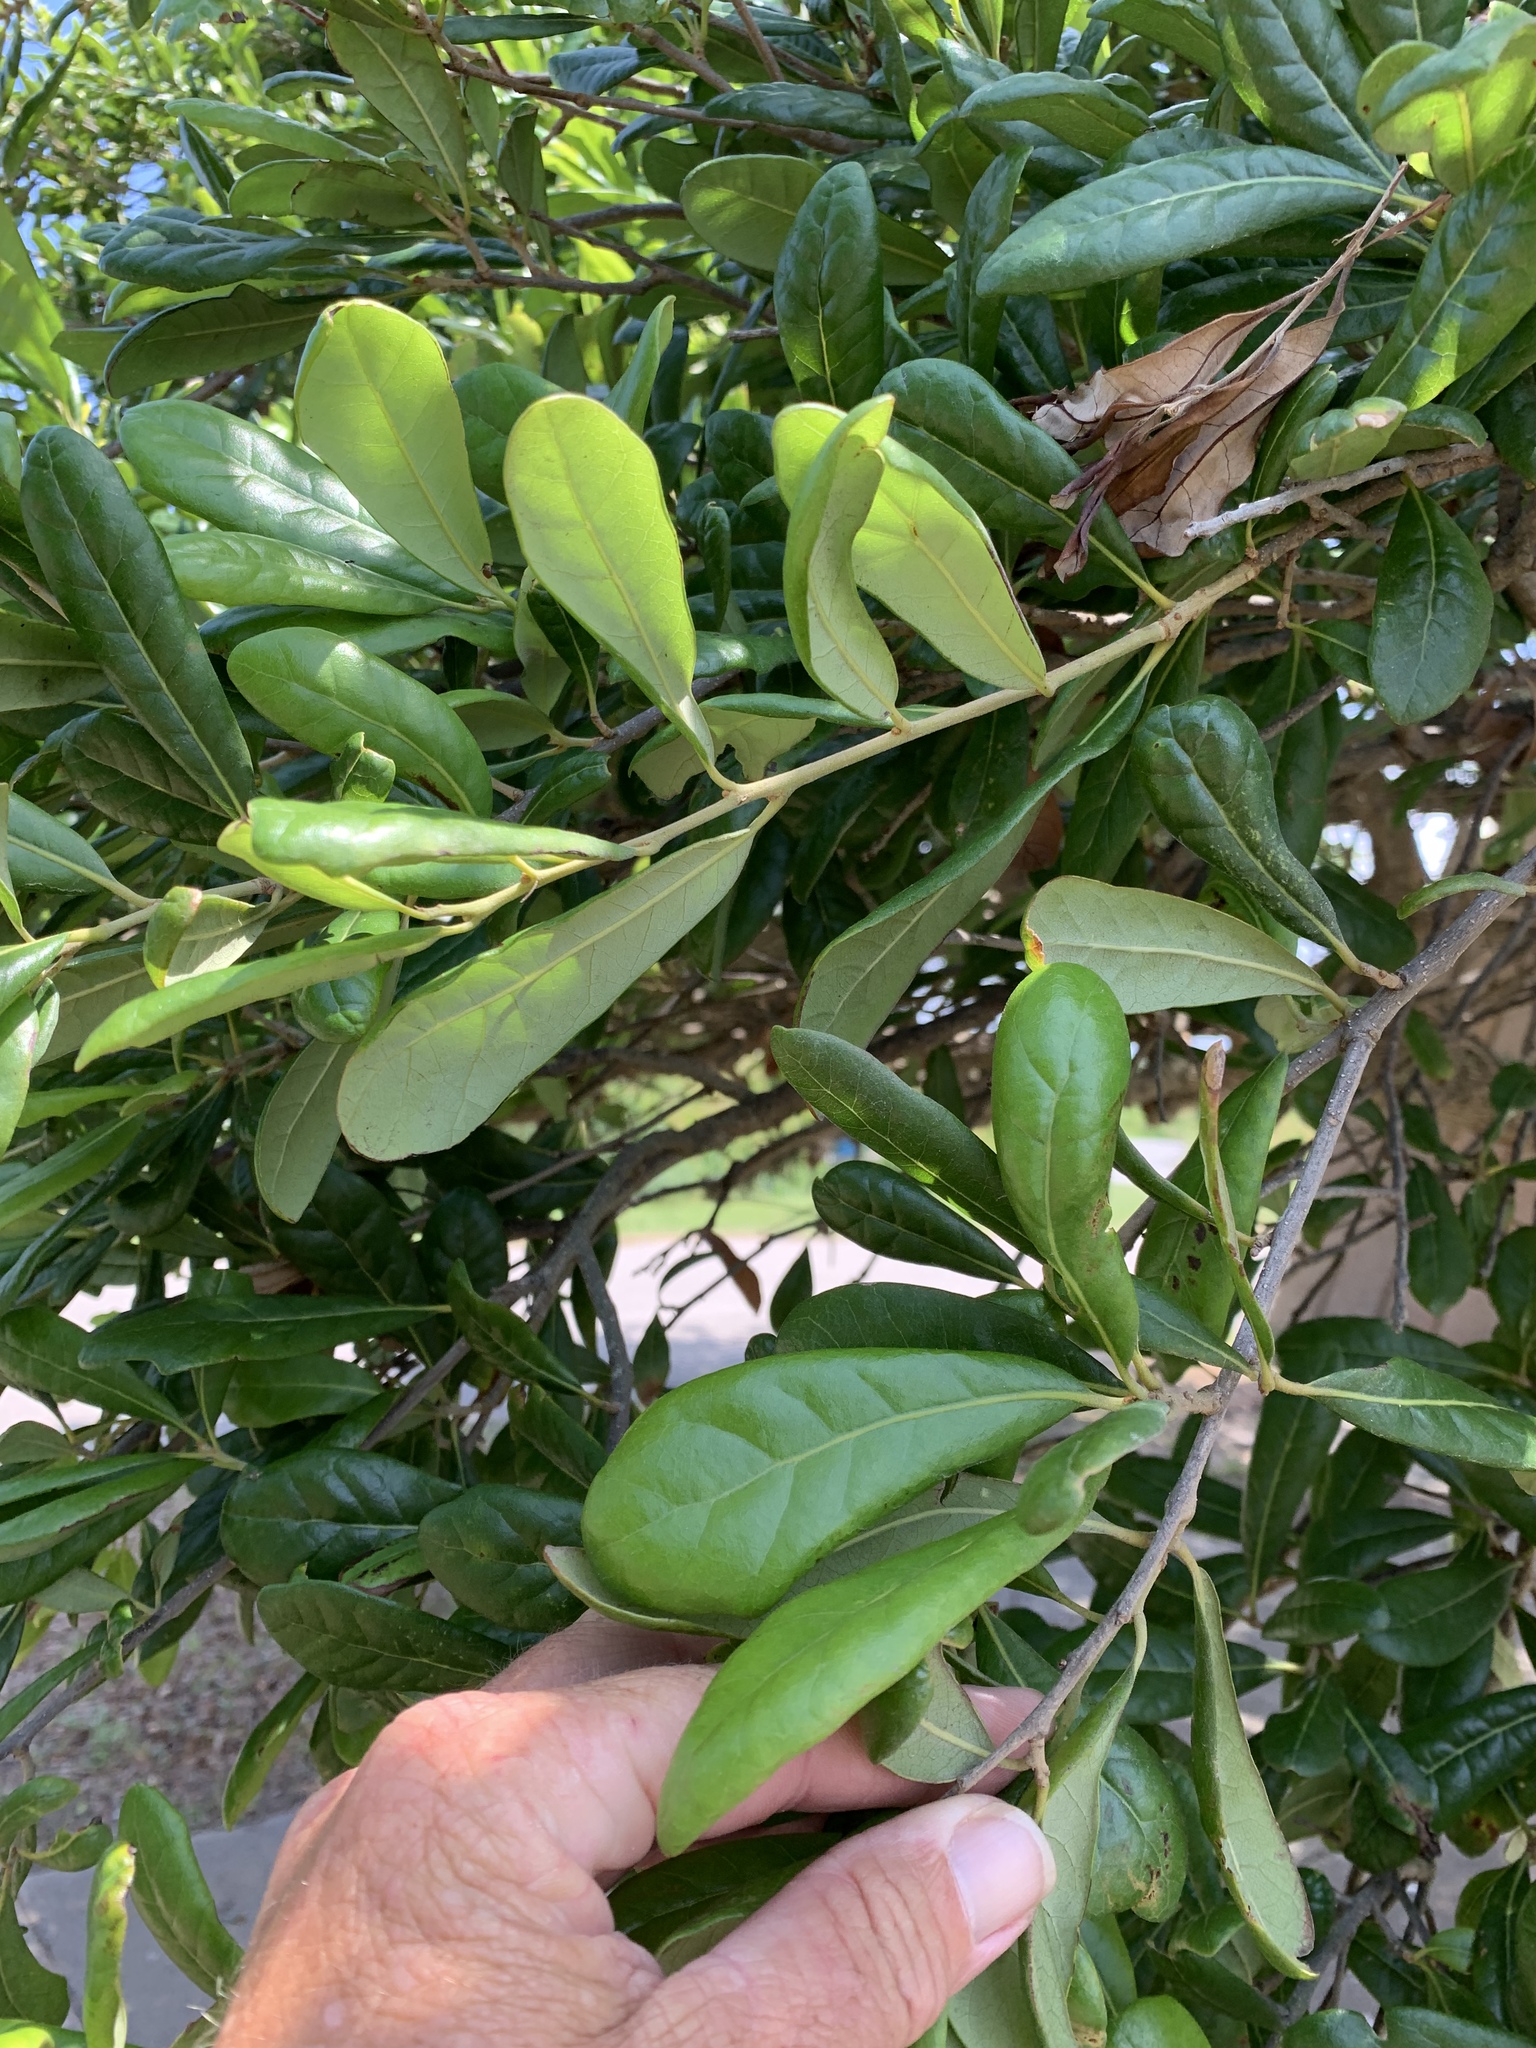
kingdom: Plantae
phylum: Tracheophyta
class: Magnoliopsida
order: Fagales
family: Fagaceae
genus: Quercus
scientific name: Quercus virginiana
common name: Southern live oak
